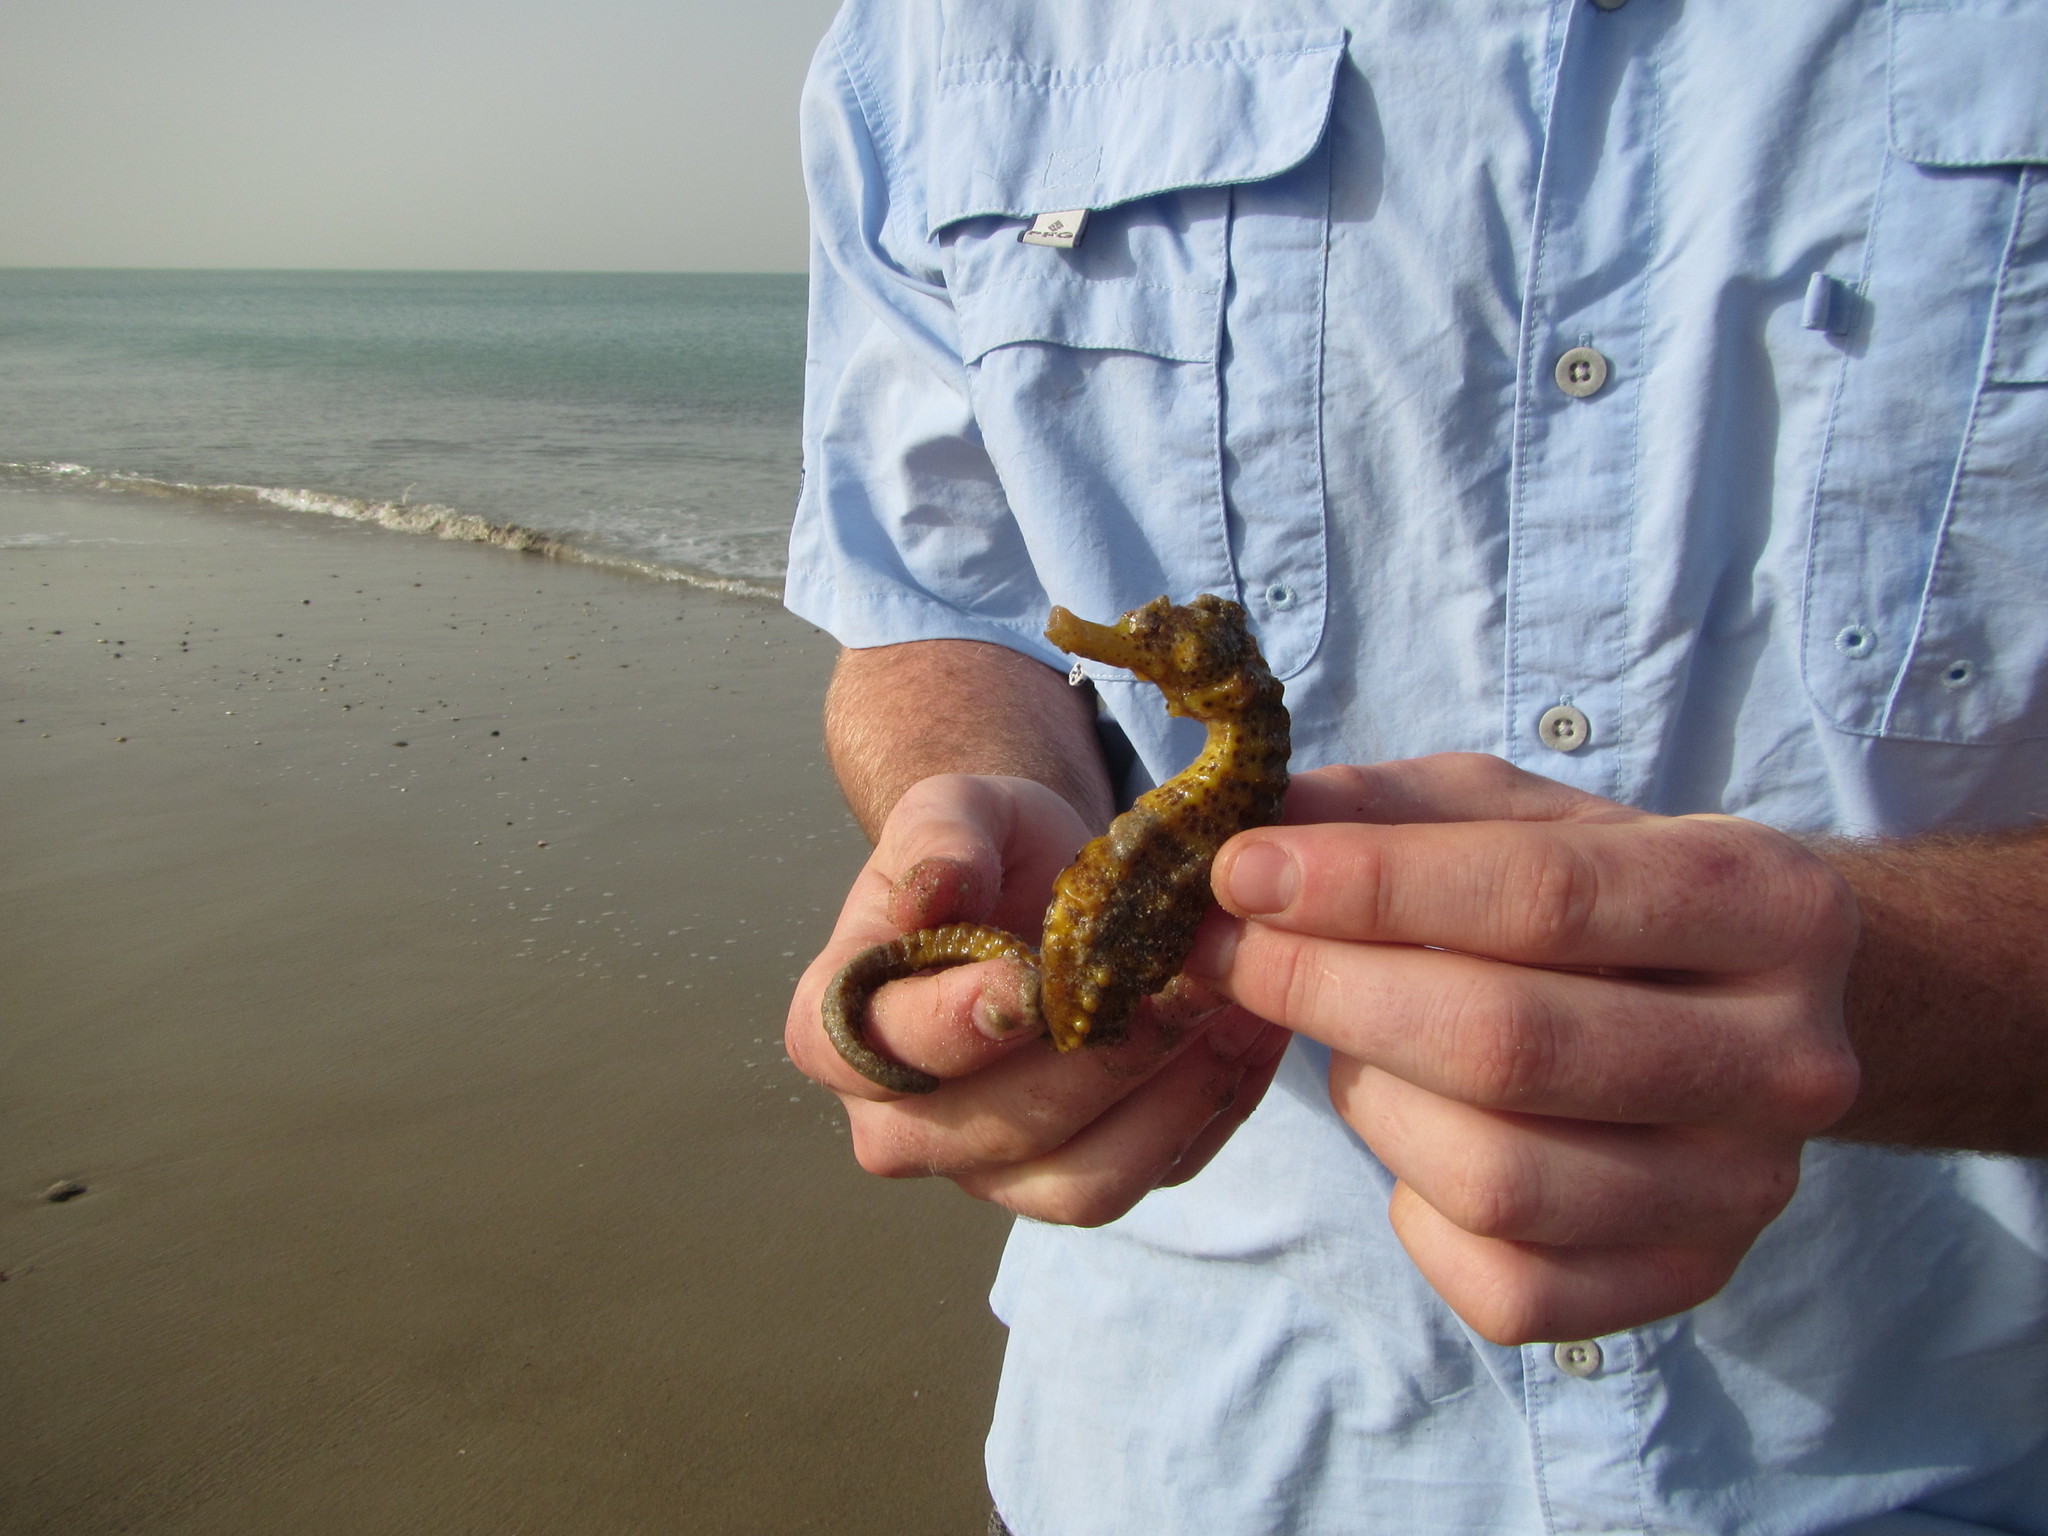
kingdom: Animalia
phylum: Chordata
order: Syngnathiformes
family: Syngnathidae
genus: Hippocampus
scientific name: Hippocampus algiricus
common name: West african seahorse
